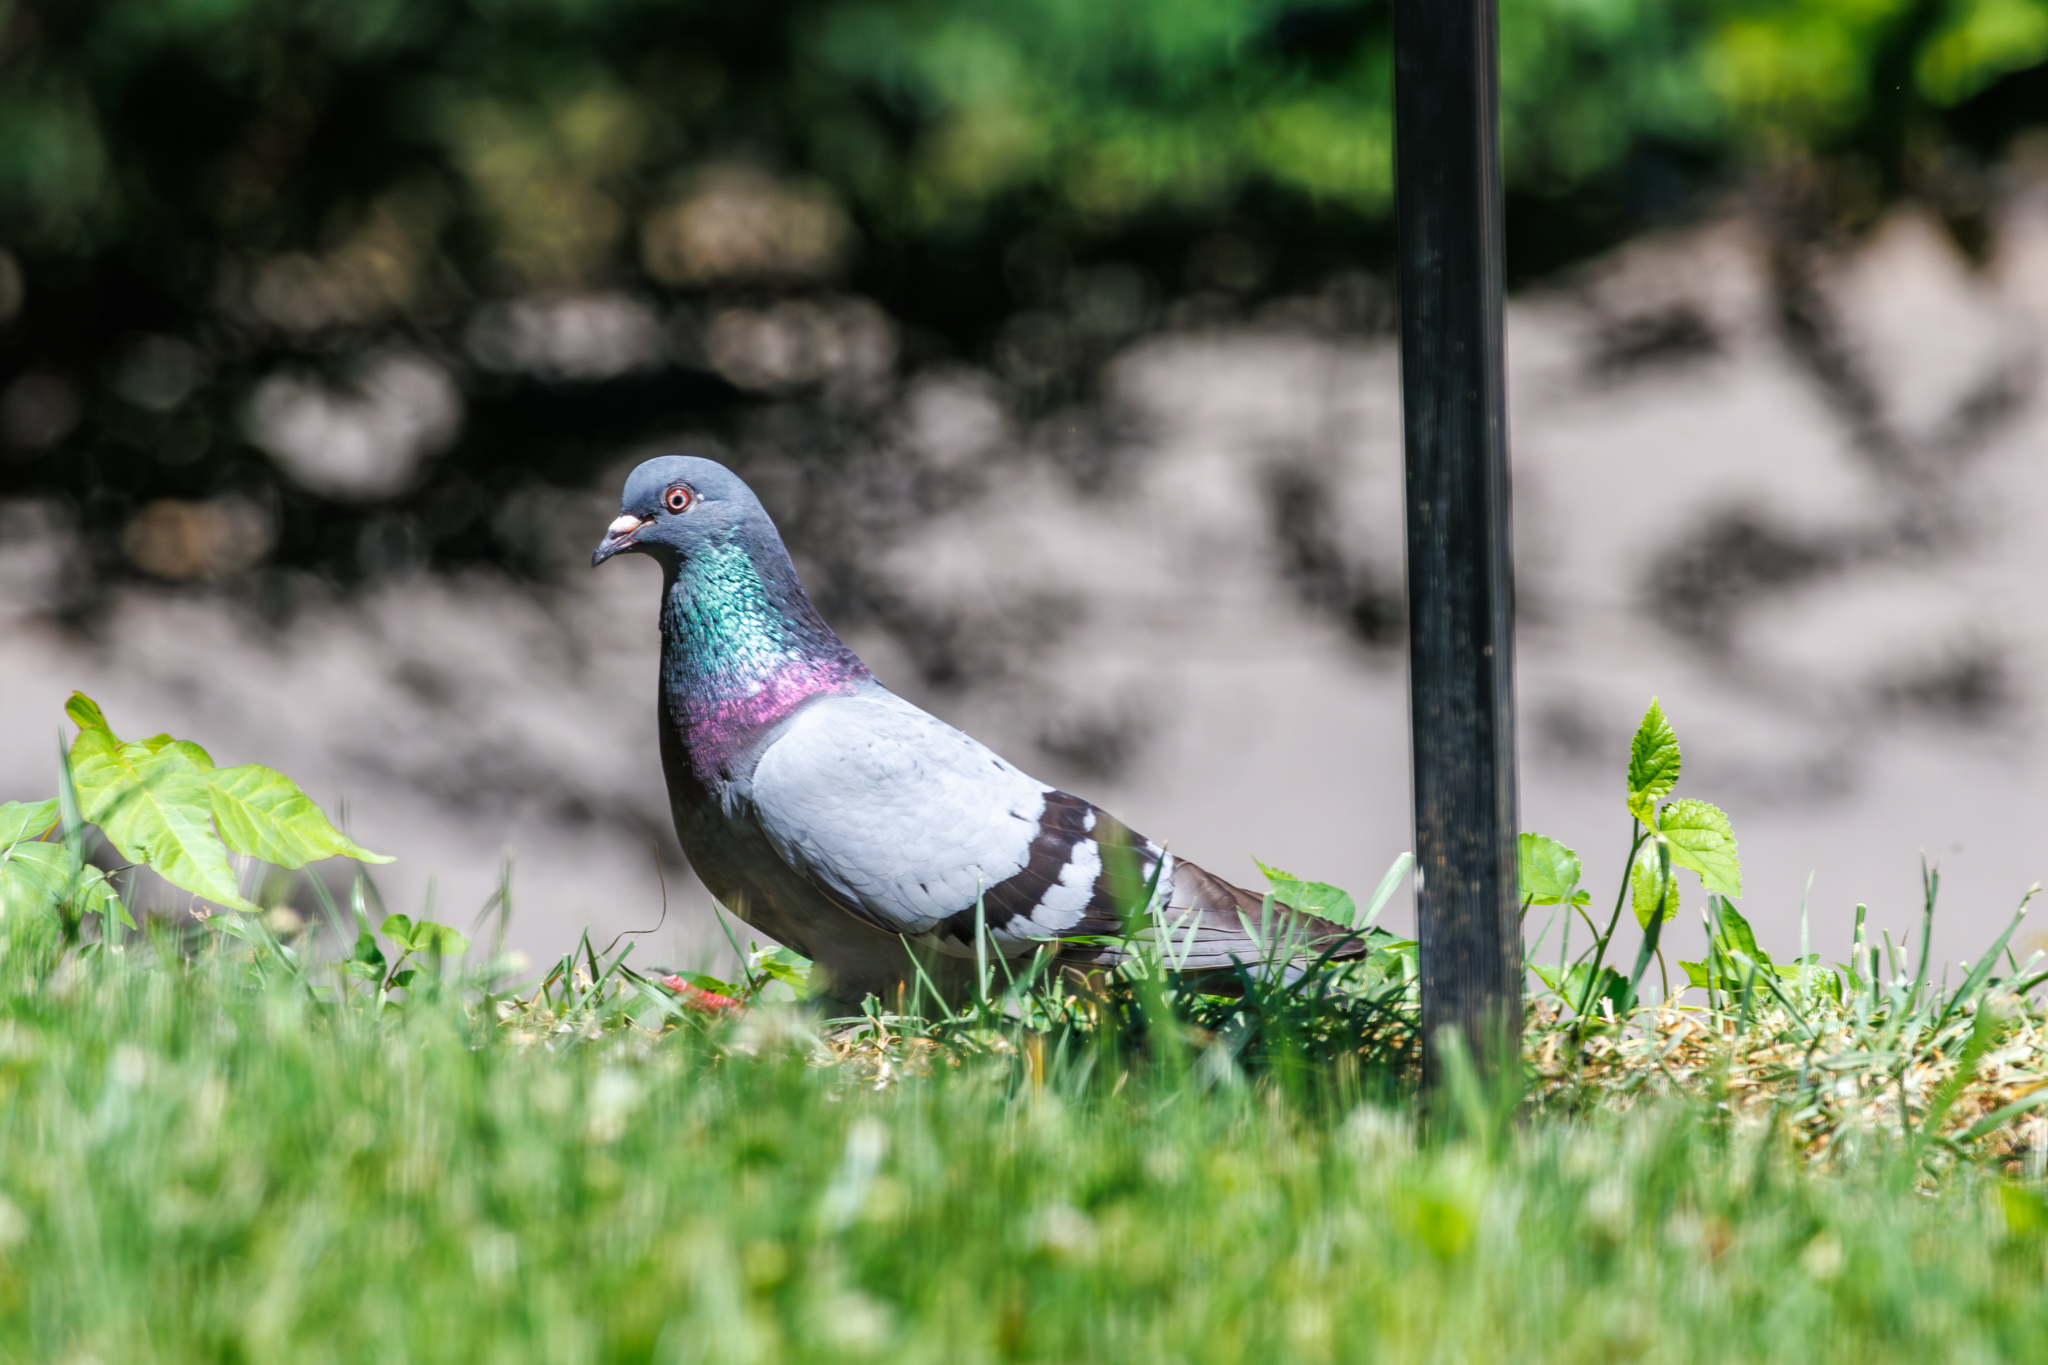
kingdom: Animalia
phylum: Chordata
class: Aves
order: Columbiformes
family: Columbidae
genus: Columba
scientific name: Columba livia
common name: Rock pigeon
